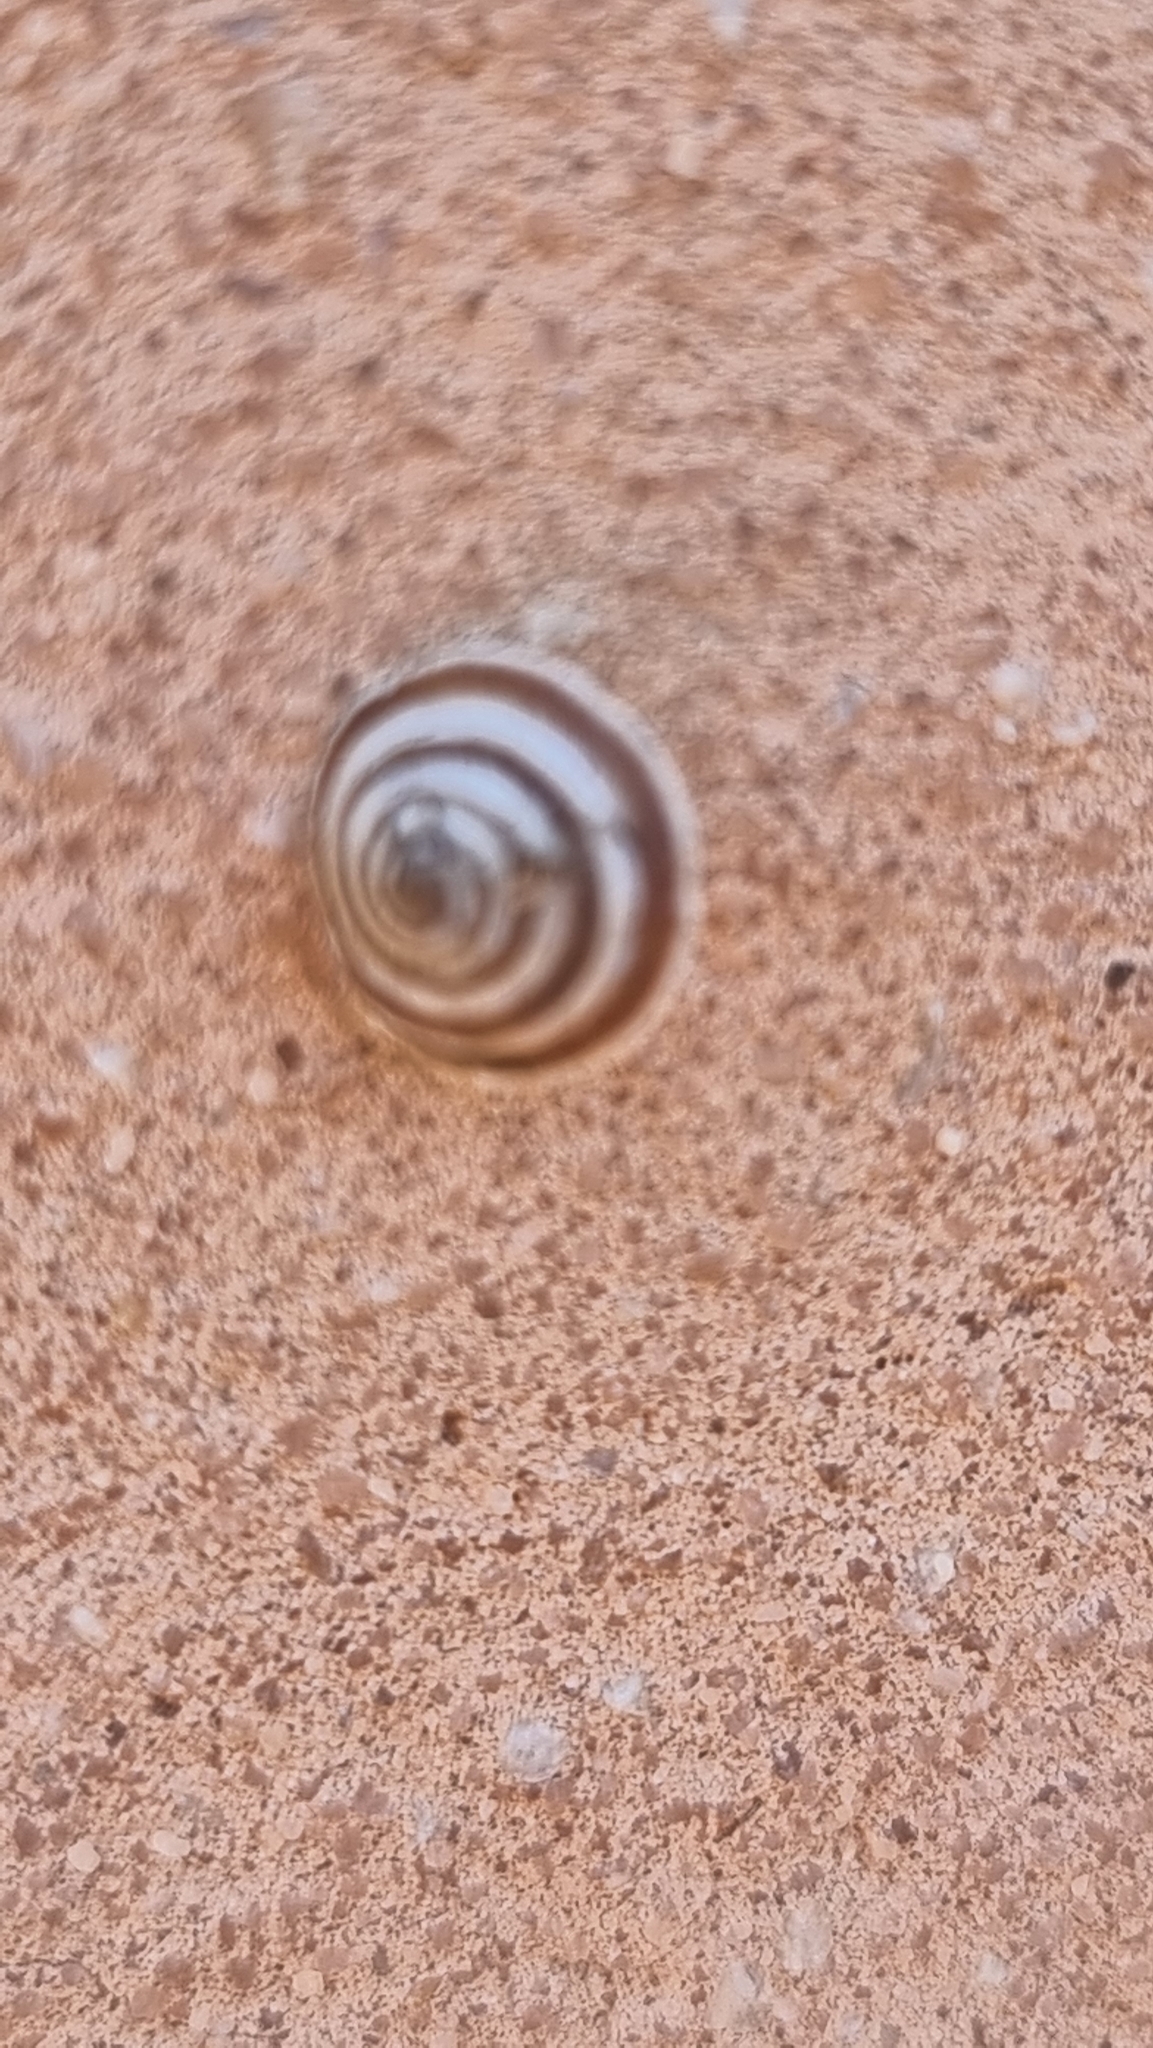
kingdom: Animalia
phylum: Mollusca
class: Gastropoda
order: Stylommatophora
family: Geomitridae
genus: Trochoidea
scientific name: Trochoidea elegans
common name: Elegant helicellid
